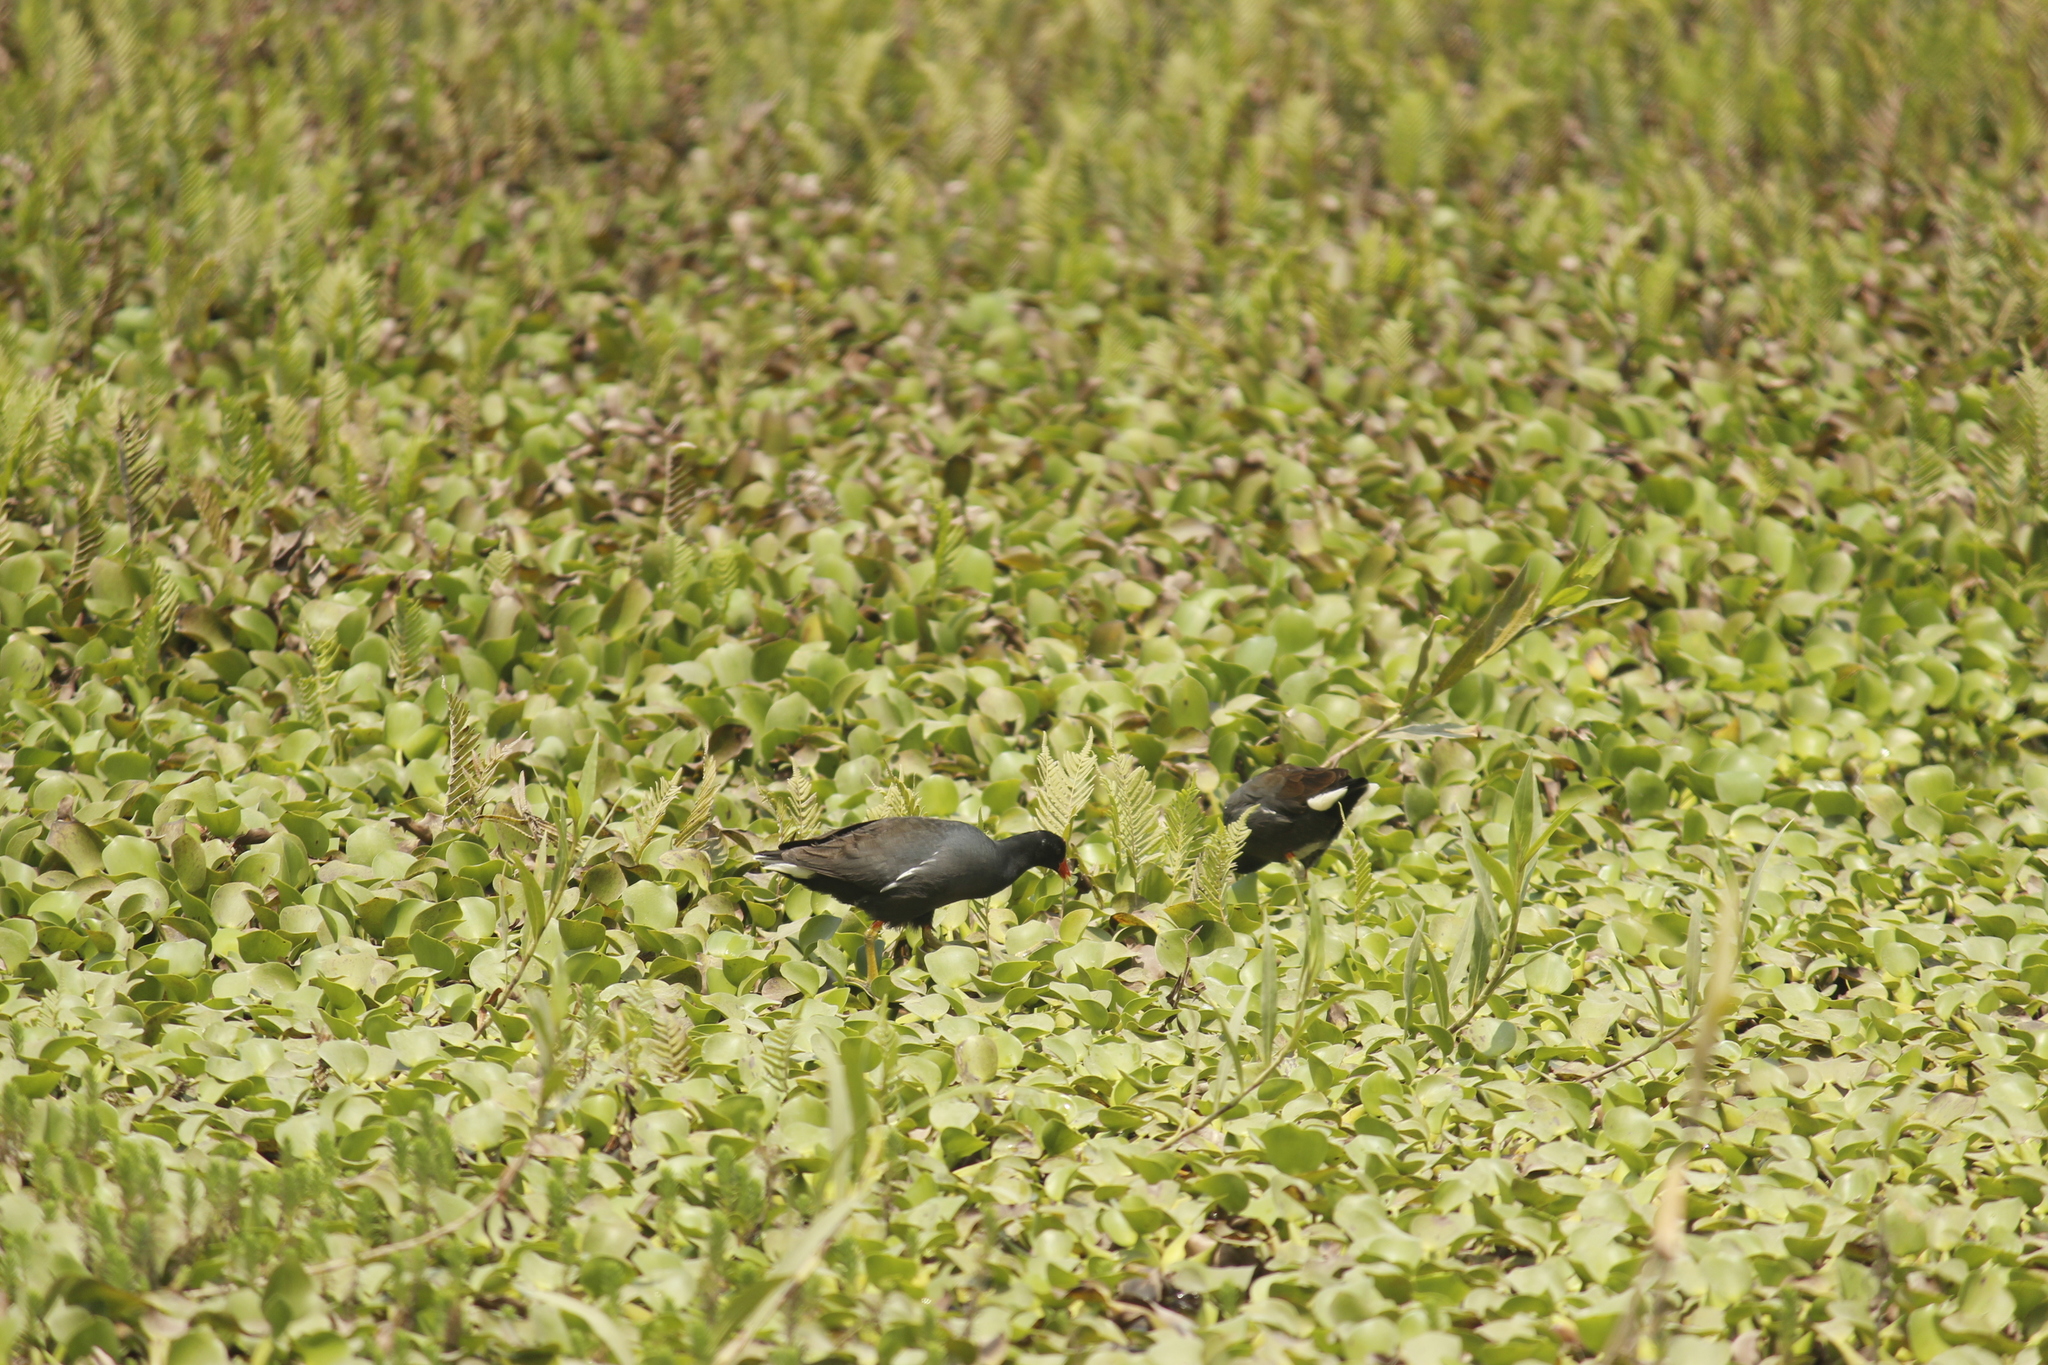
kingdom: Animalia
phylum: Chordata
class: Aves
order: Gruiformes
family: Rallidae
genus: Gallinula
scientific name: Gallinula chloropus
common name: Common moorhen
